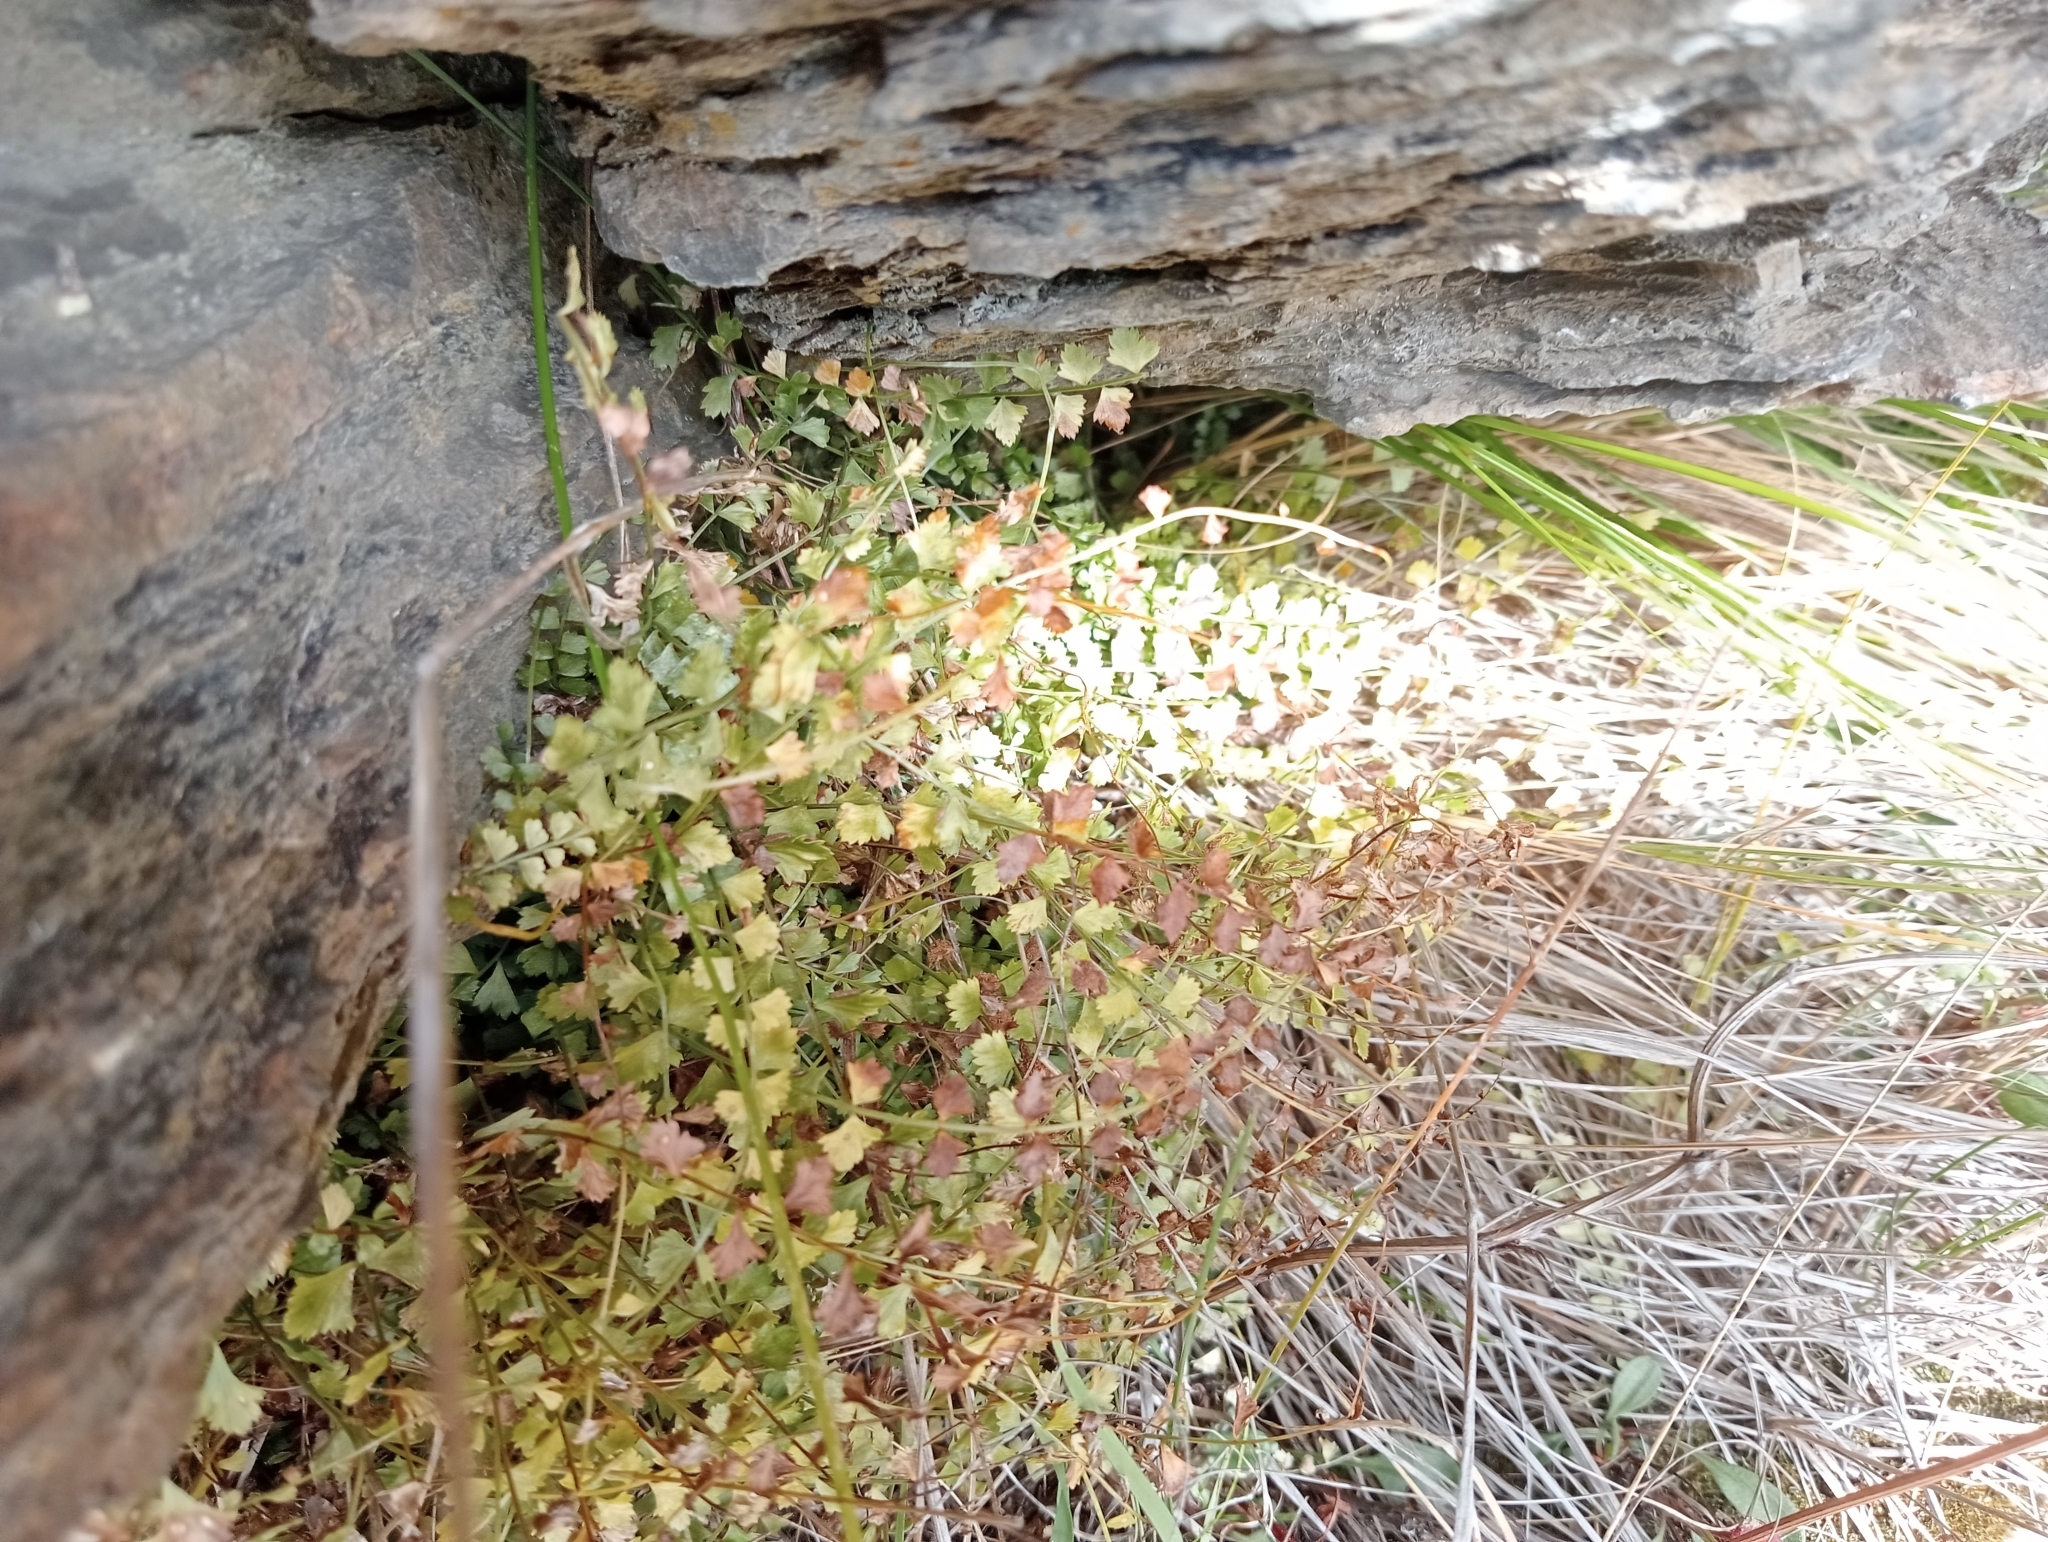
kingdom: Plantae
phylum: Tracheophyta
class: Polypodiopsida
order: Polypodiales
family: Aspleniaceae
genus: Asplenium
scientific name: Asplenium flabellifolium
